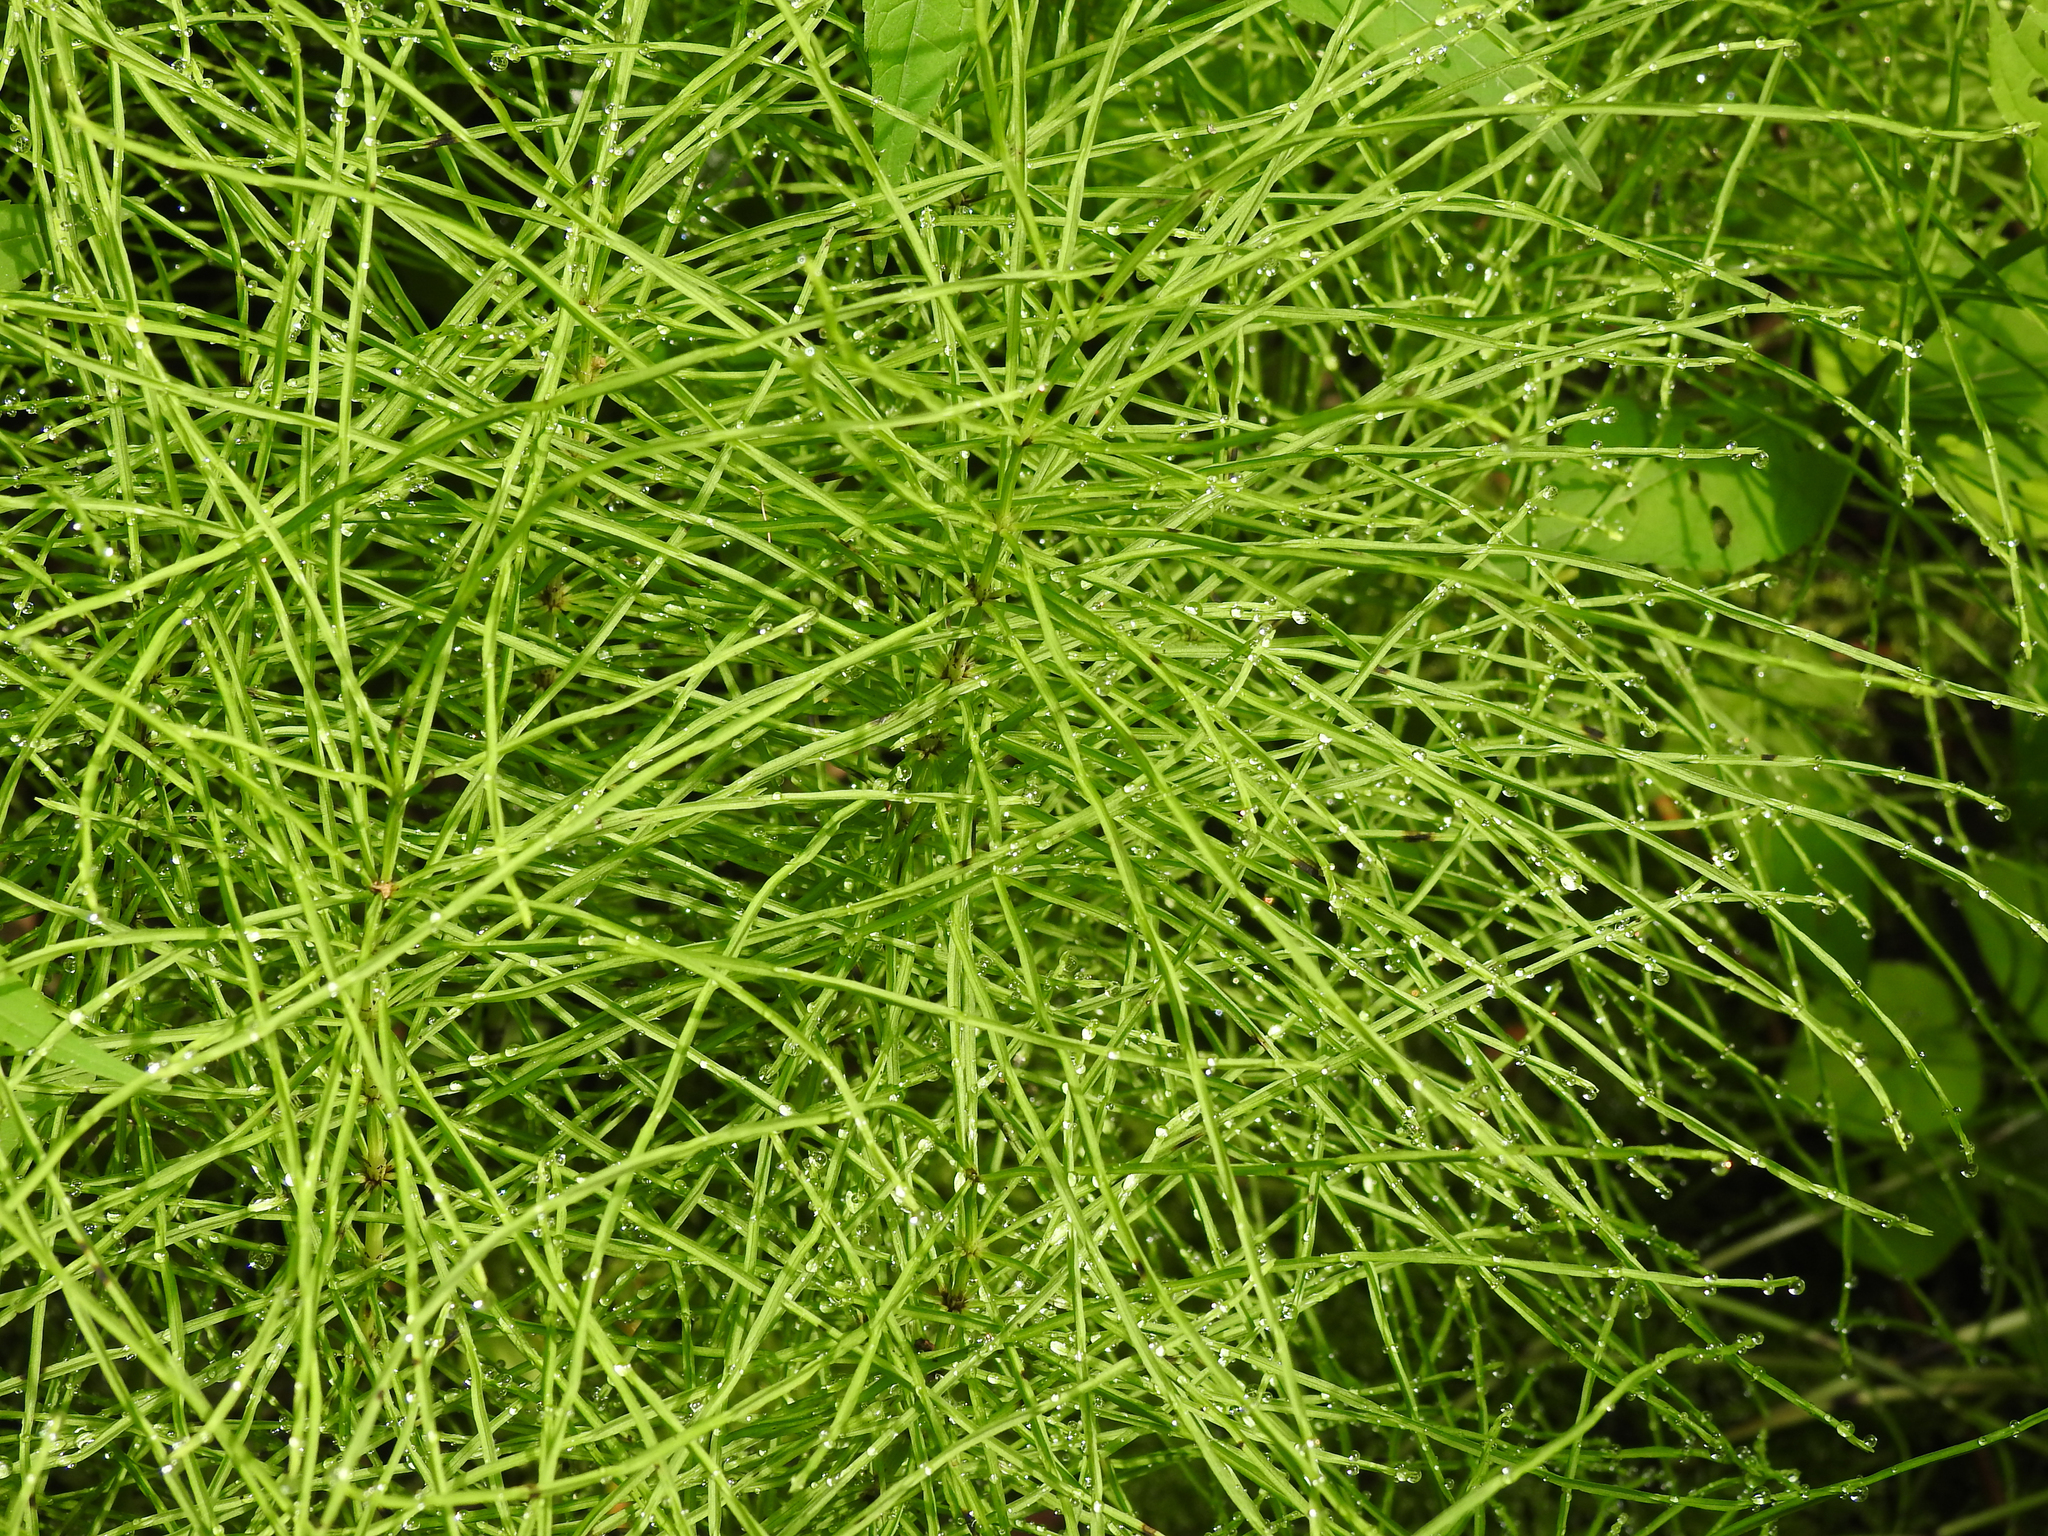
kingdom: Plantae
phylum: Tracheophyta
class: Polypodiopsida
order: Equisetales
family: Equisetaceae
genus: Equisetum
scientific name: Equisetum arvense
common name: Field horsetail
